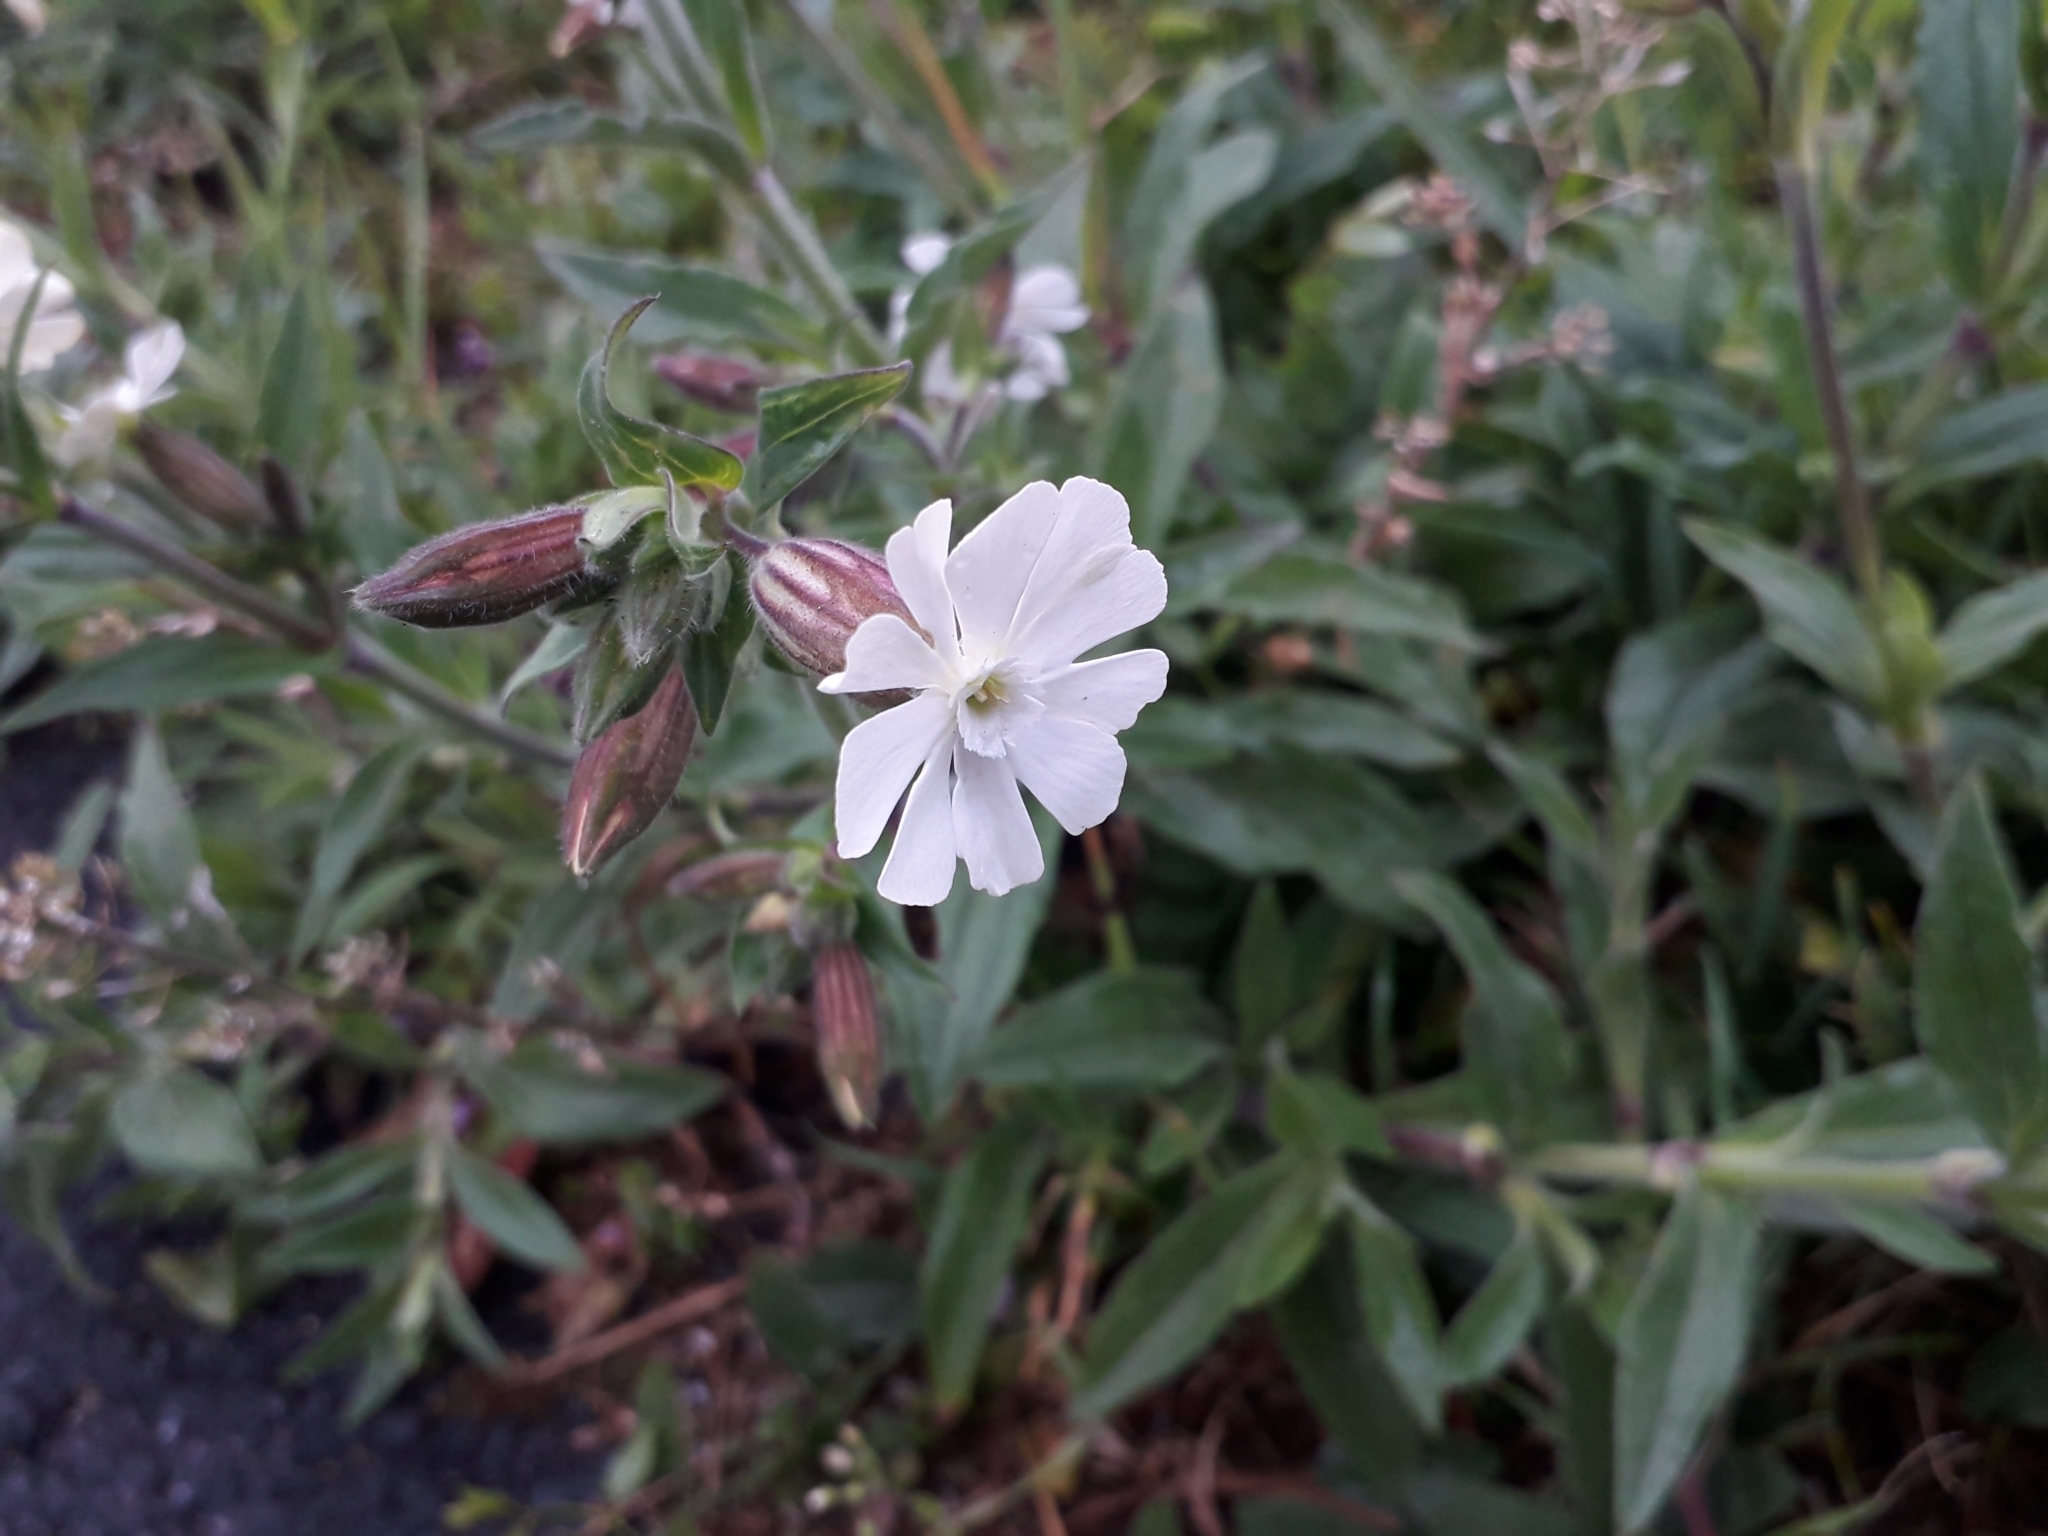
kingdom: Plantae
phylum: Tracheophyta
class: Magnoliopsida
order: Caryophyllales
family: Caryophyllaceae
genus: Silene
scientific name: Silene latifolia
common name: White campion
